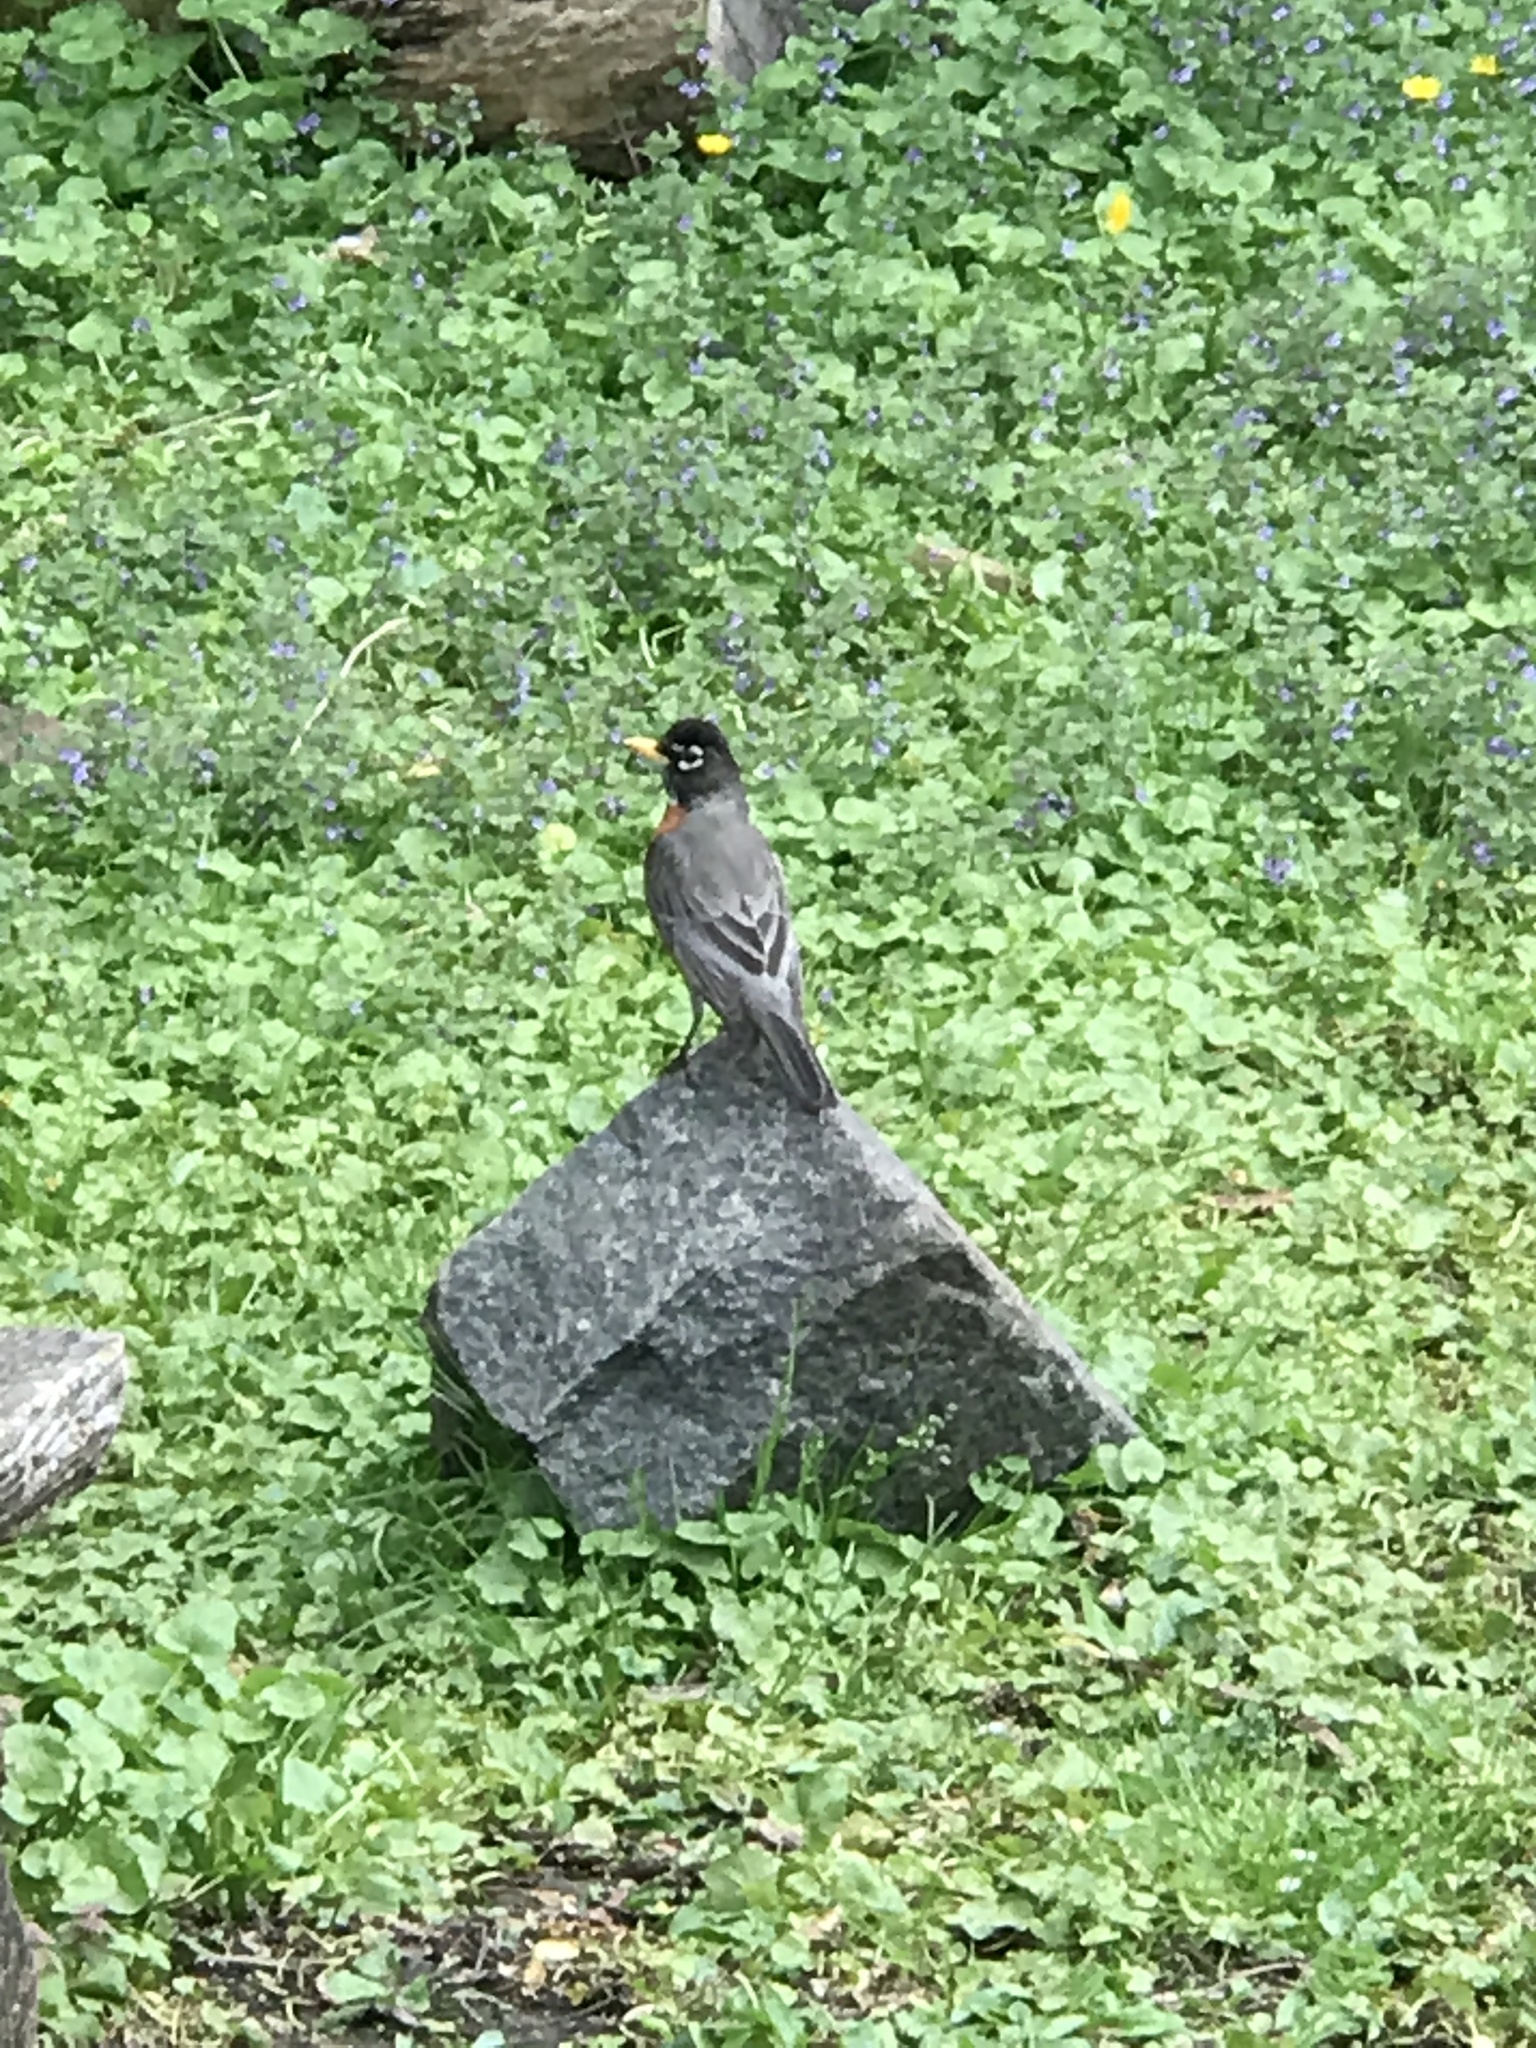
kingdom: Animalia
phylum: Chordata
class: Aves
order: Passeriformes
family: Turdidae
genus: Turdus
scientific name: Turdus migratorius
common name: American robin
